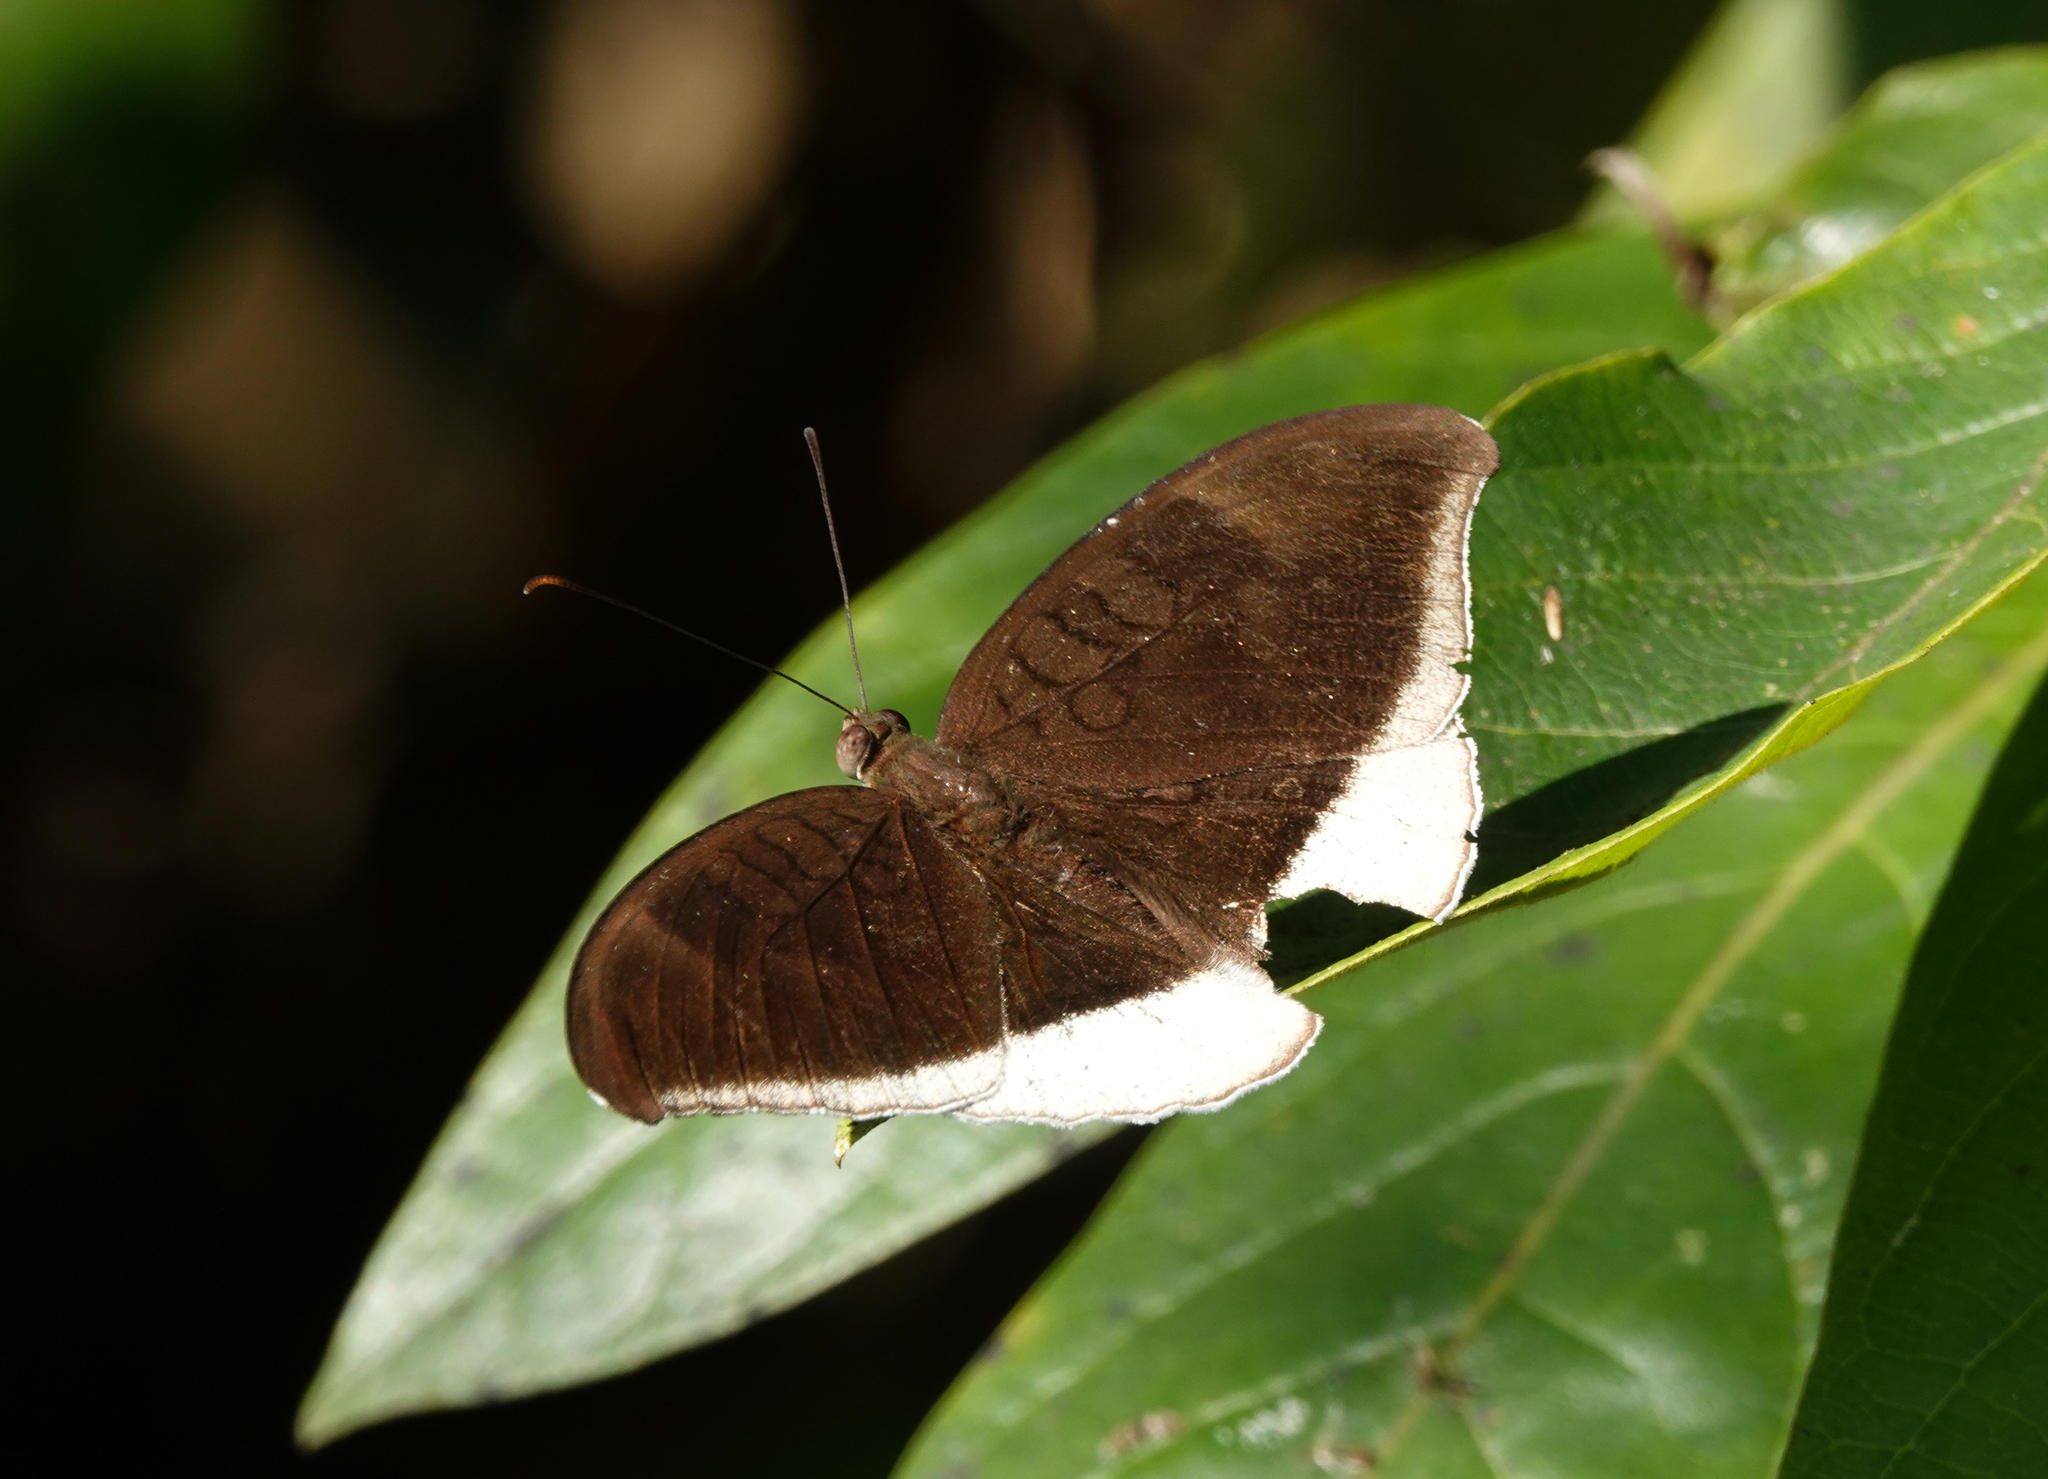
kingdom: Animalia
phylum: Arthropoda
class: Insecta
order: Lepidoptera
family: Nymphalidae
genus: Tanaecia
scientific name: Tanaecia lepidea
